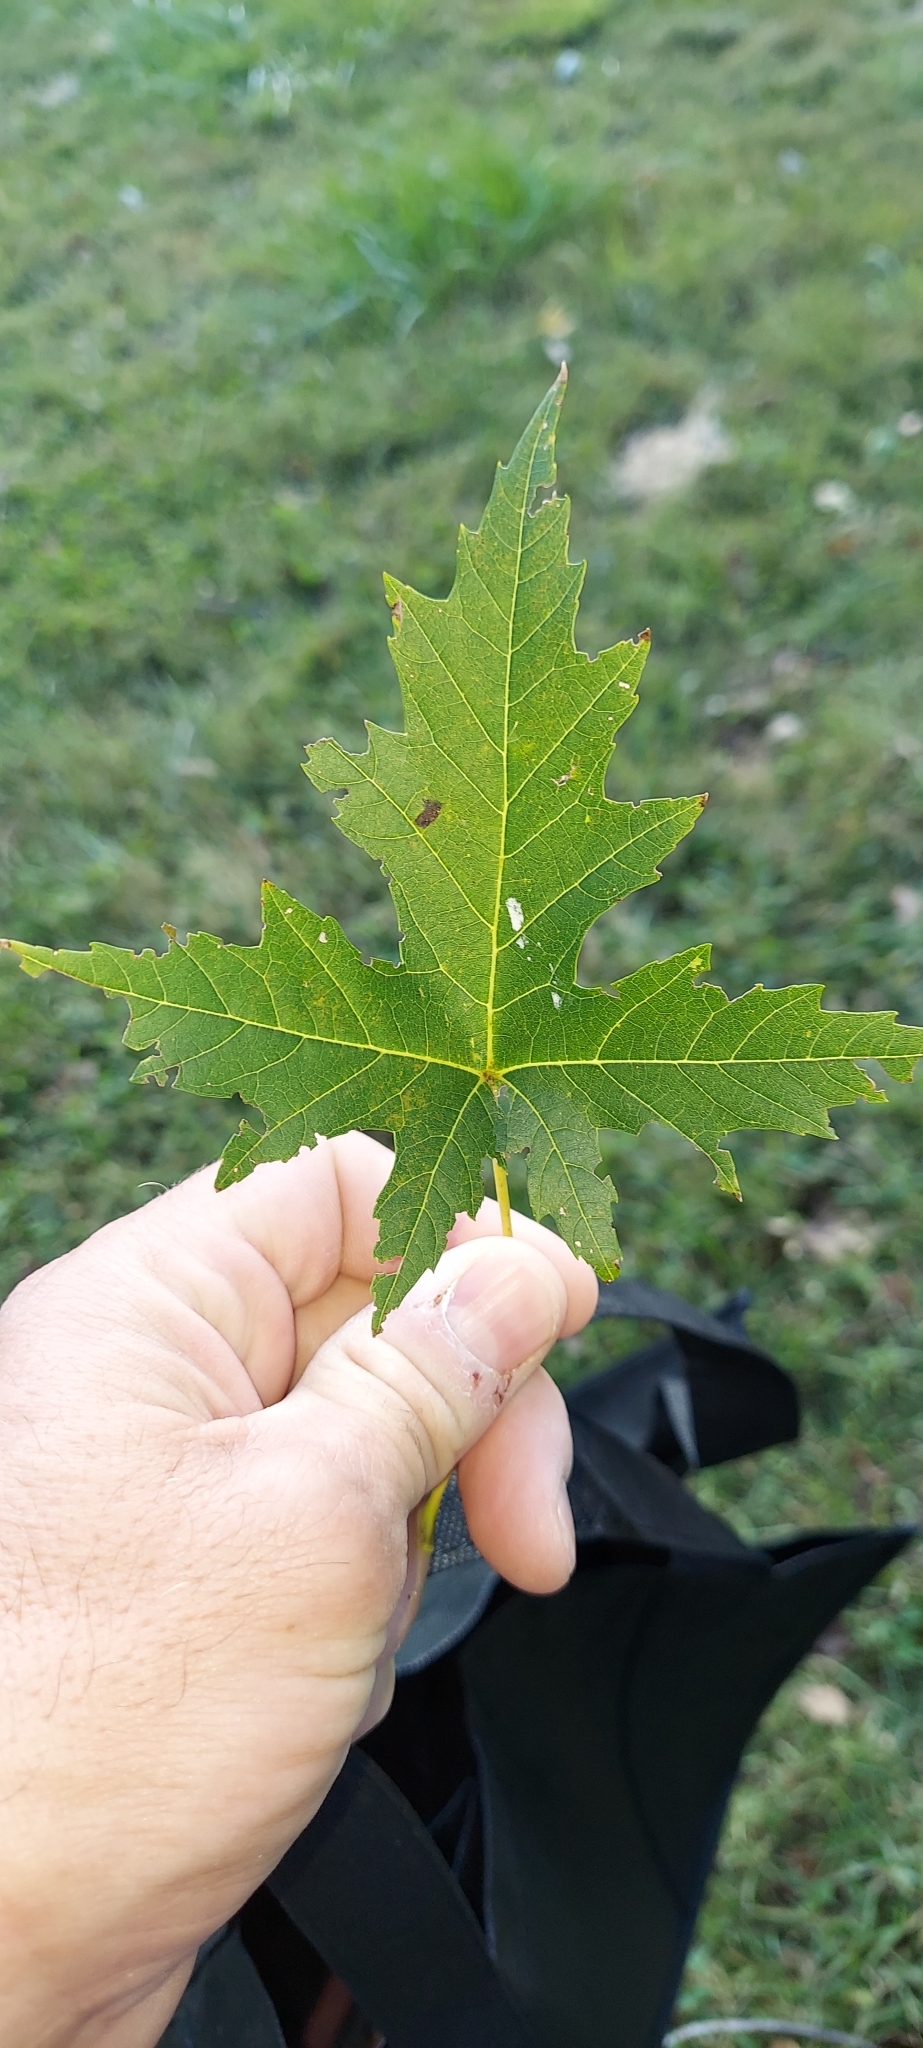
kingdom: Plantae
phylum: Tracheophyta
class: Magnoliopsida
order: Sapindales
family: Sapindaceae
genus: Acer
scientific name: Acer saccharinum
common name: Silver maple
